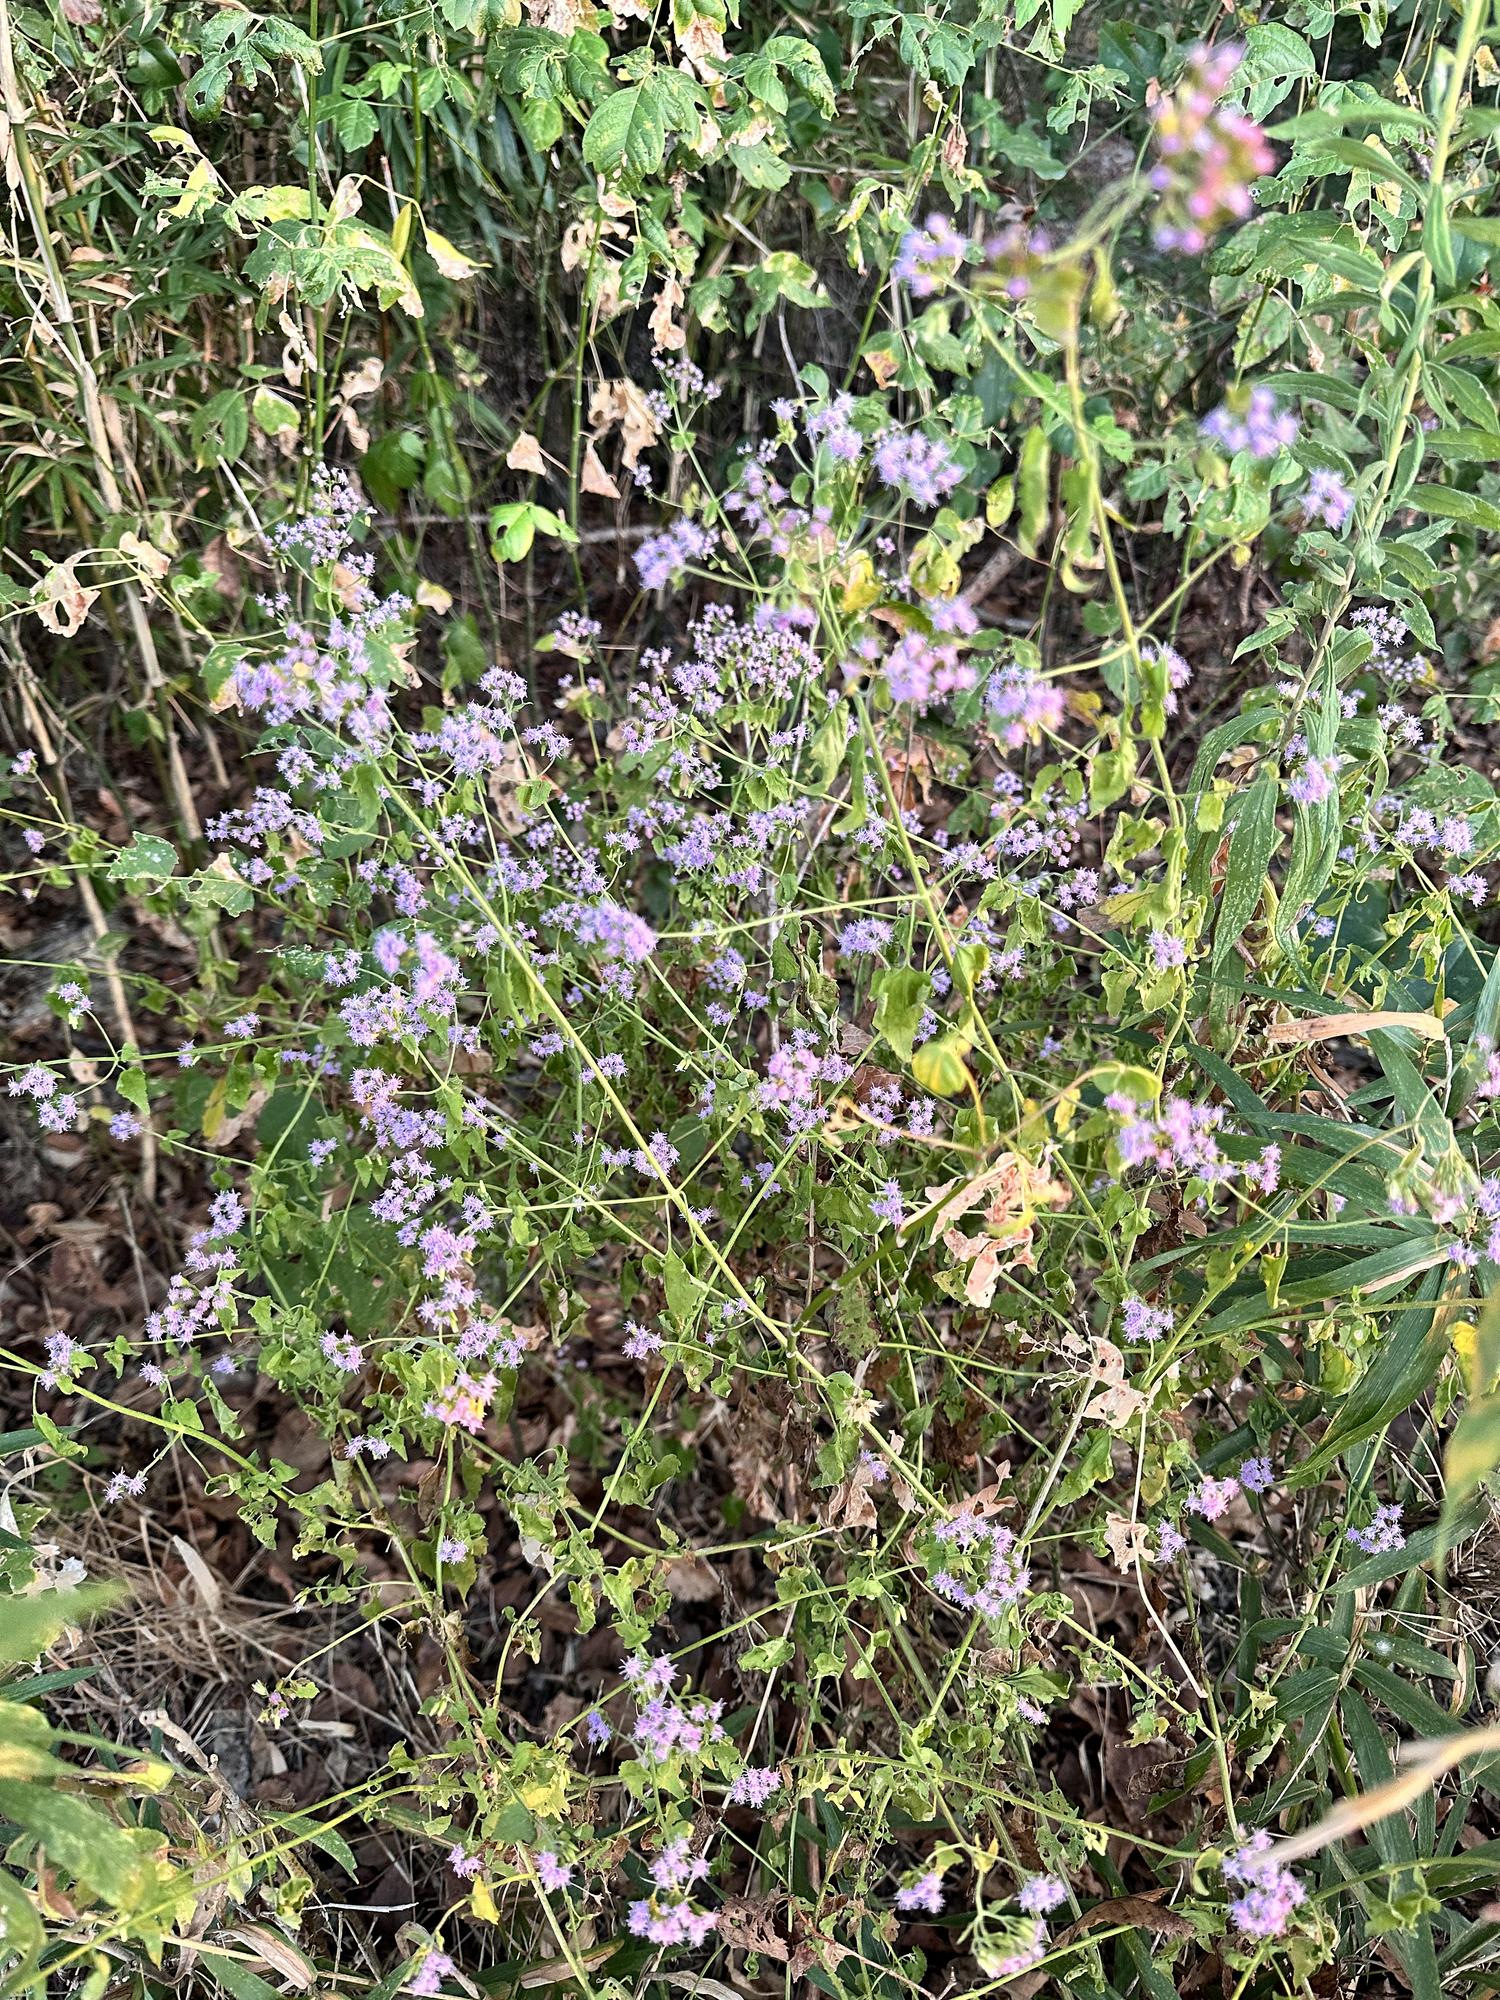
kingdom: Plantae
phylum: Tracheophyta
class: Magnoliopsida
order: Asterales
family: Asteraceae
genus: Fleischmannia
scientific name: Fleischmannia incarnata
